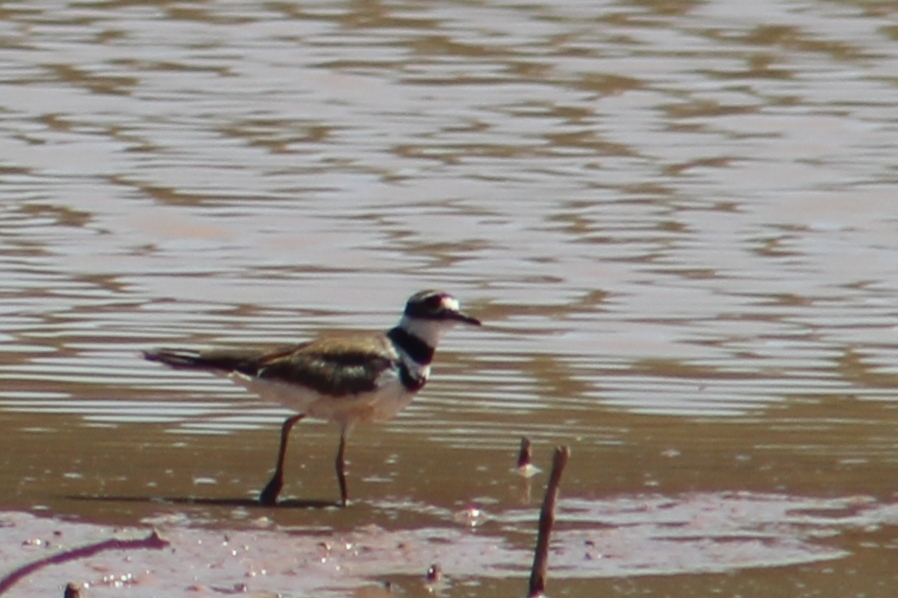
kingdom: Animalia
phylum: Chordata
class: Aves
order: Charadriiformes
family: Charadriidae
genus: Charadrius
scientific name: Charadrius vociferus
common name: Killdeer
